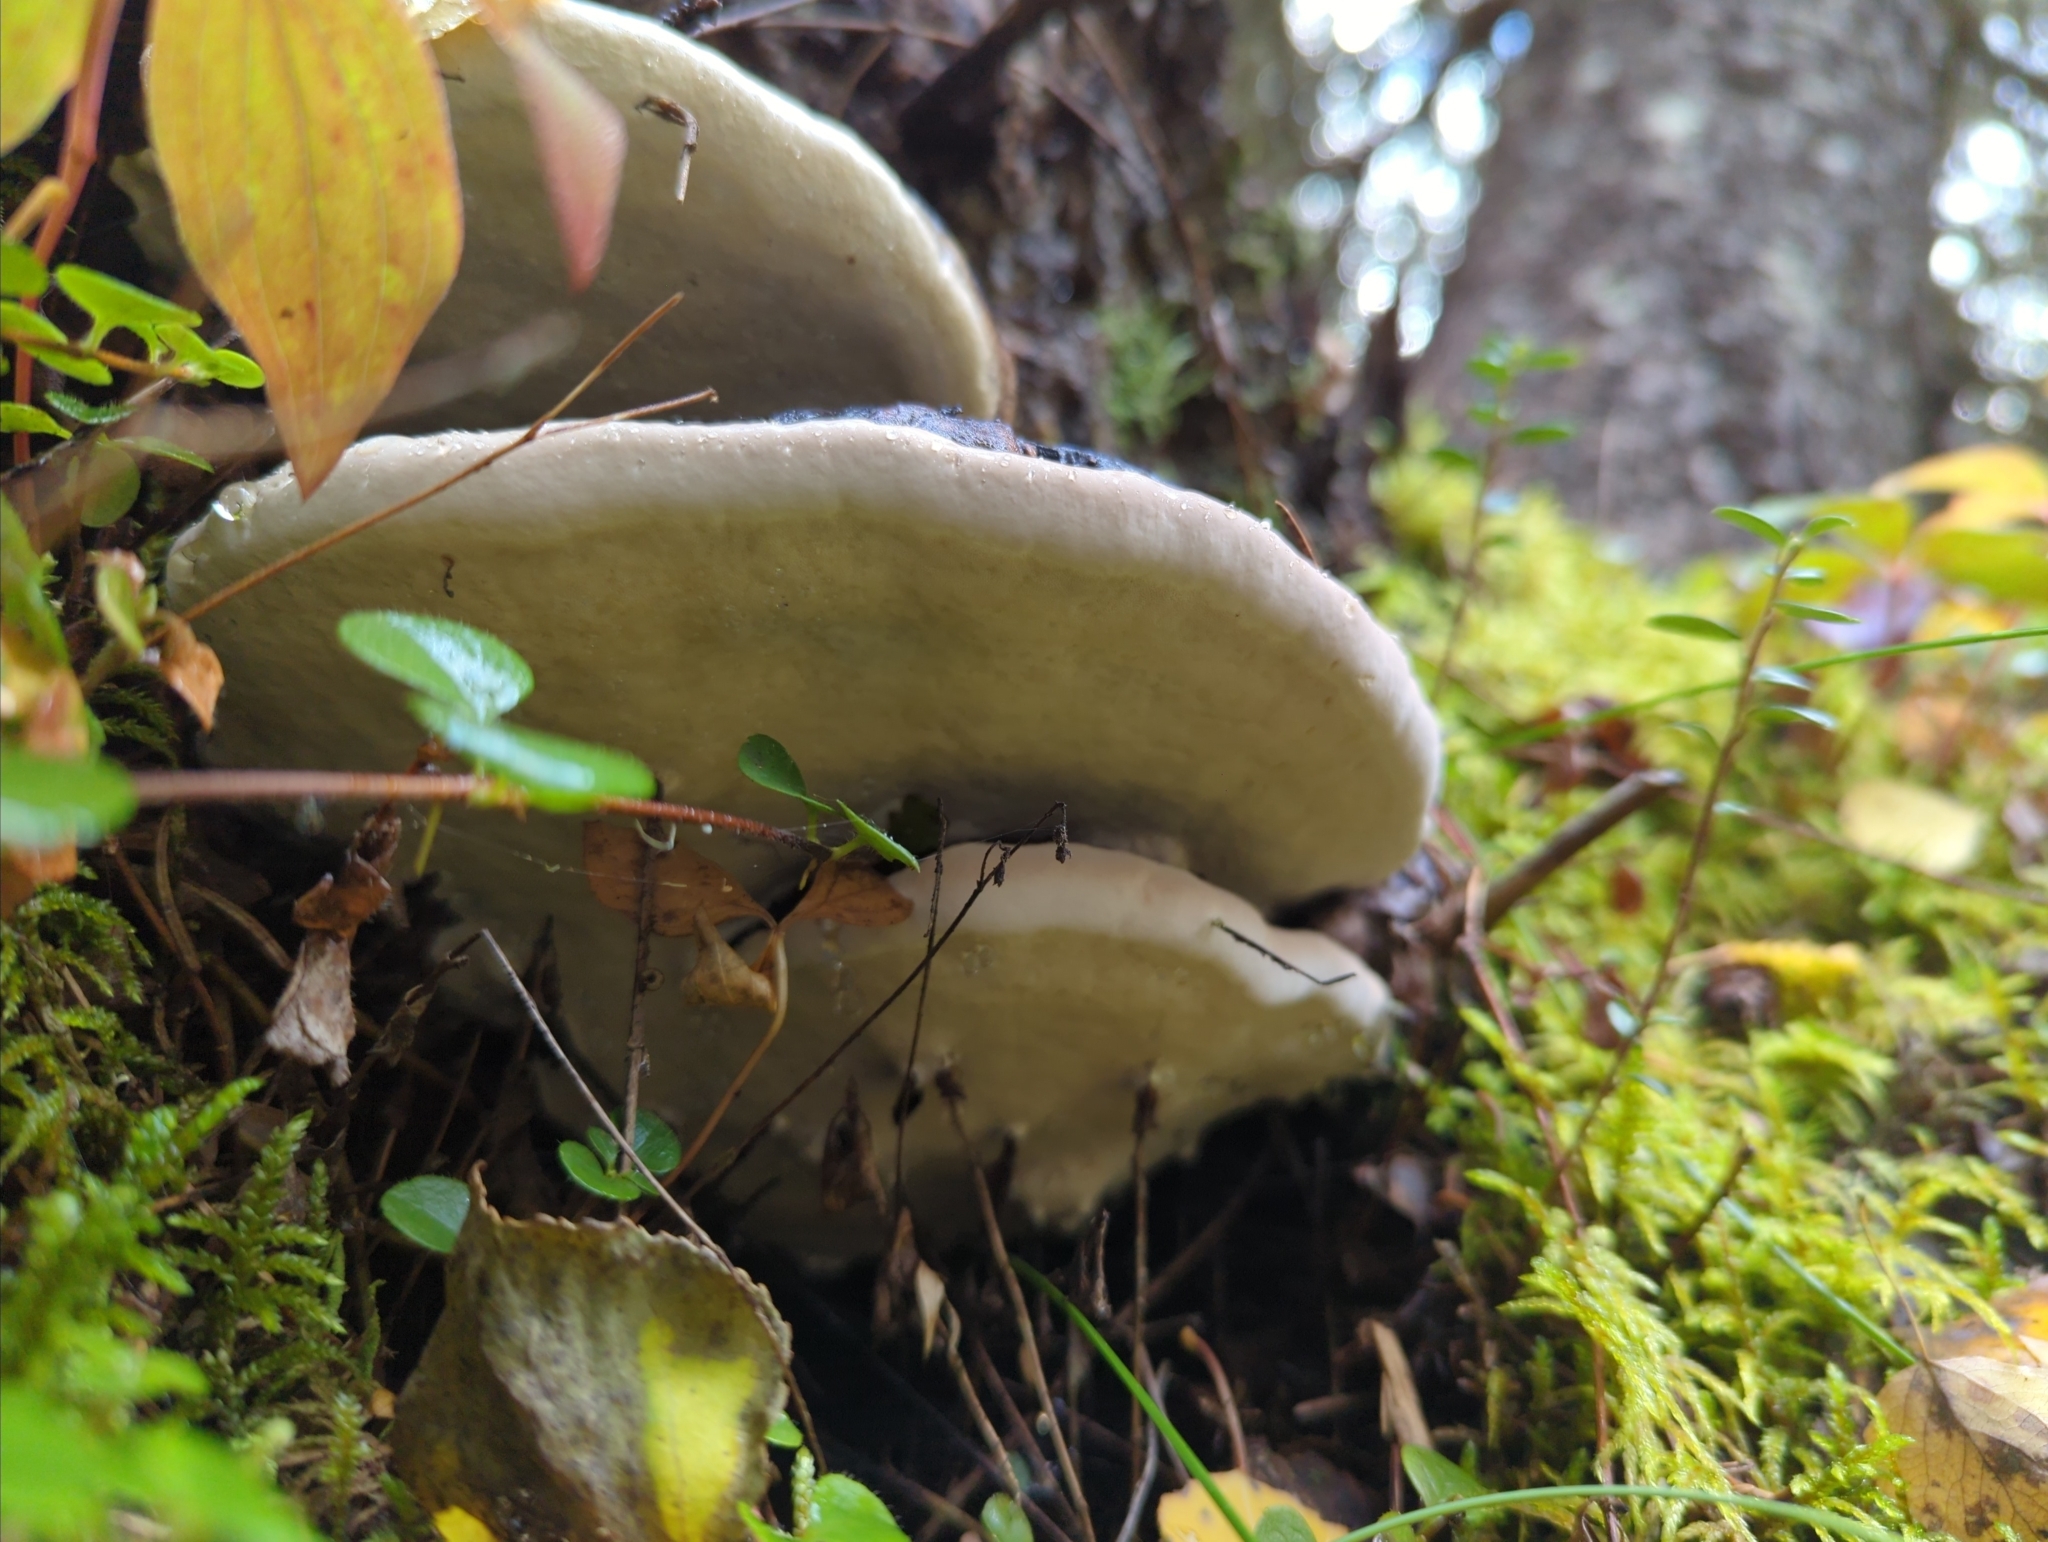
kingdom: Fungi
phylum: Basidiomycota
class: Agaricomycetes
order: Polyporales
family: Fomitopsidaceae
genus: Fomitopsis
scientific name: Fomitopsis ochracea
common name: American brown fomitopsis
